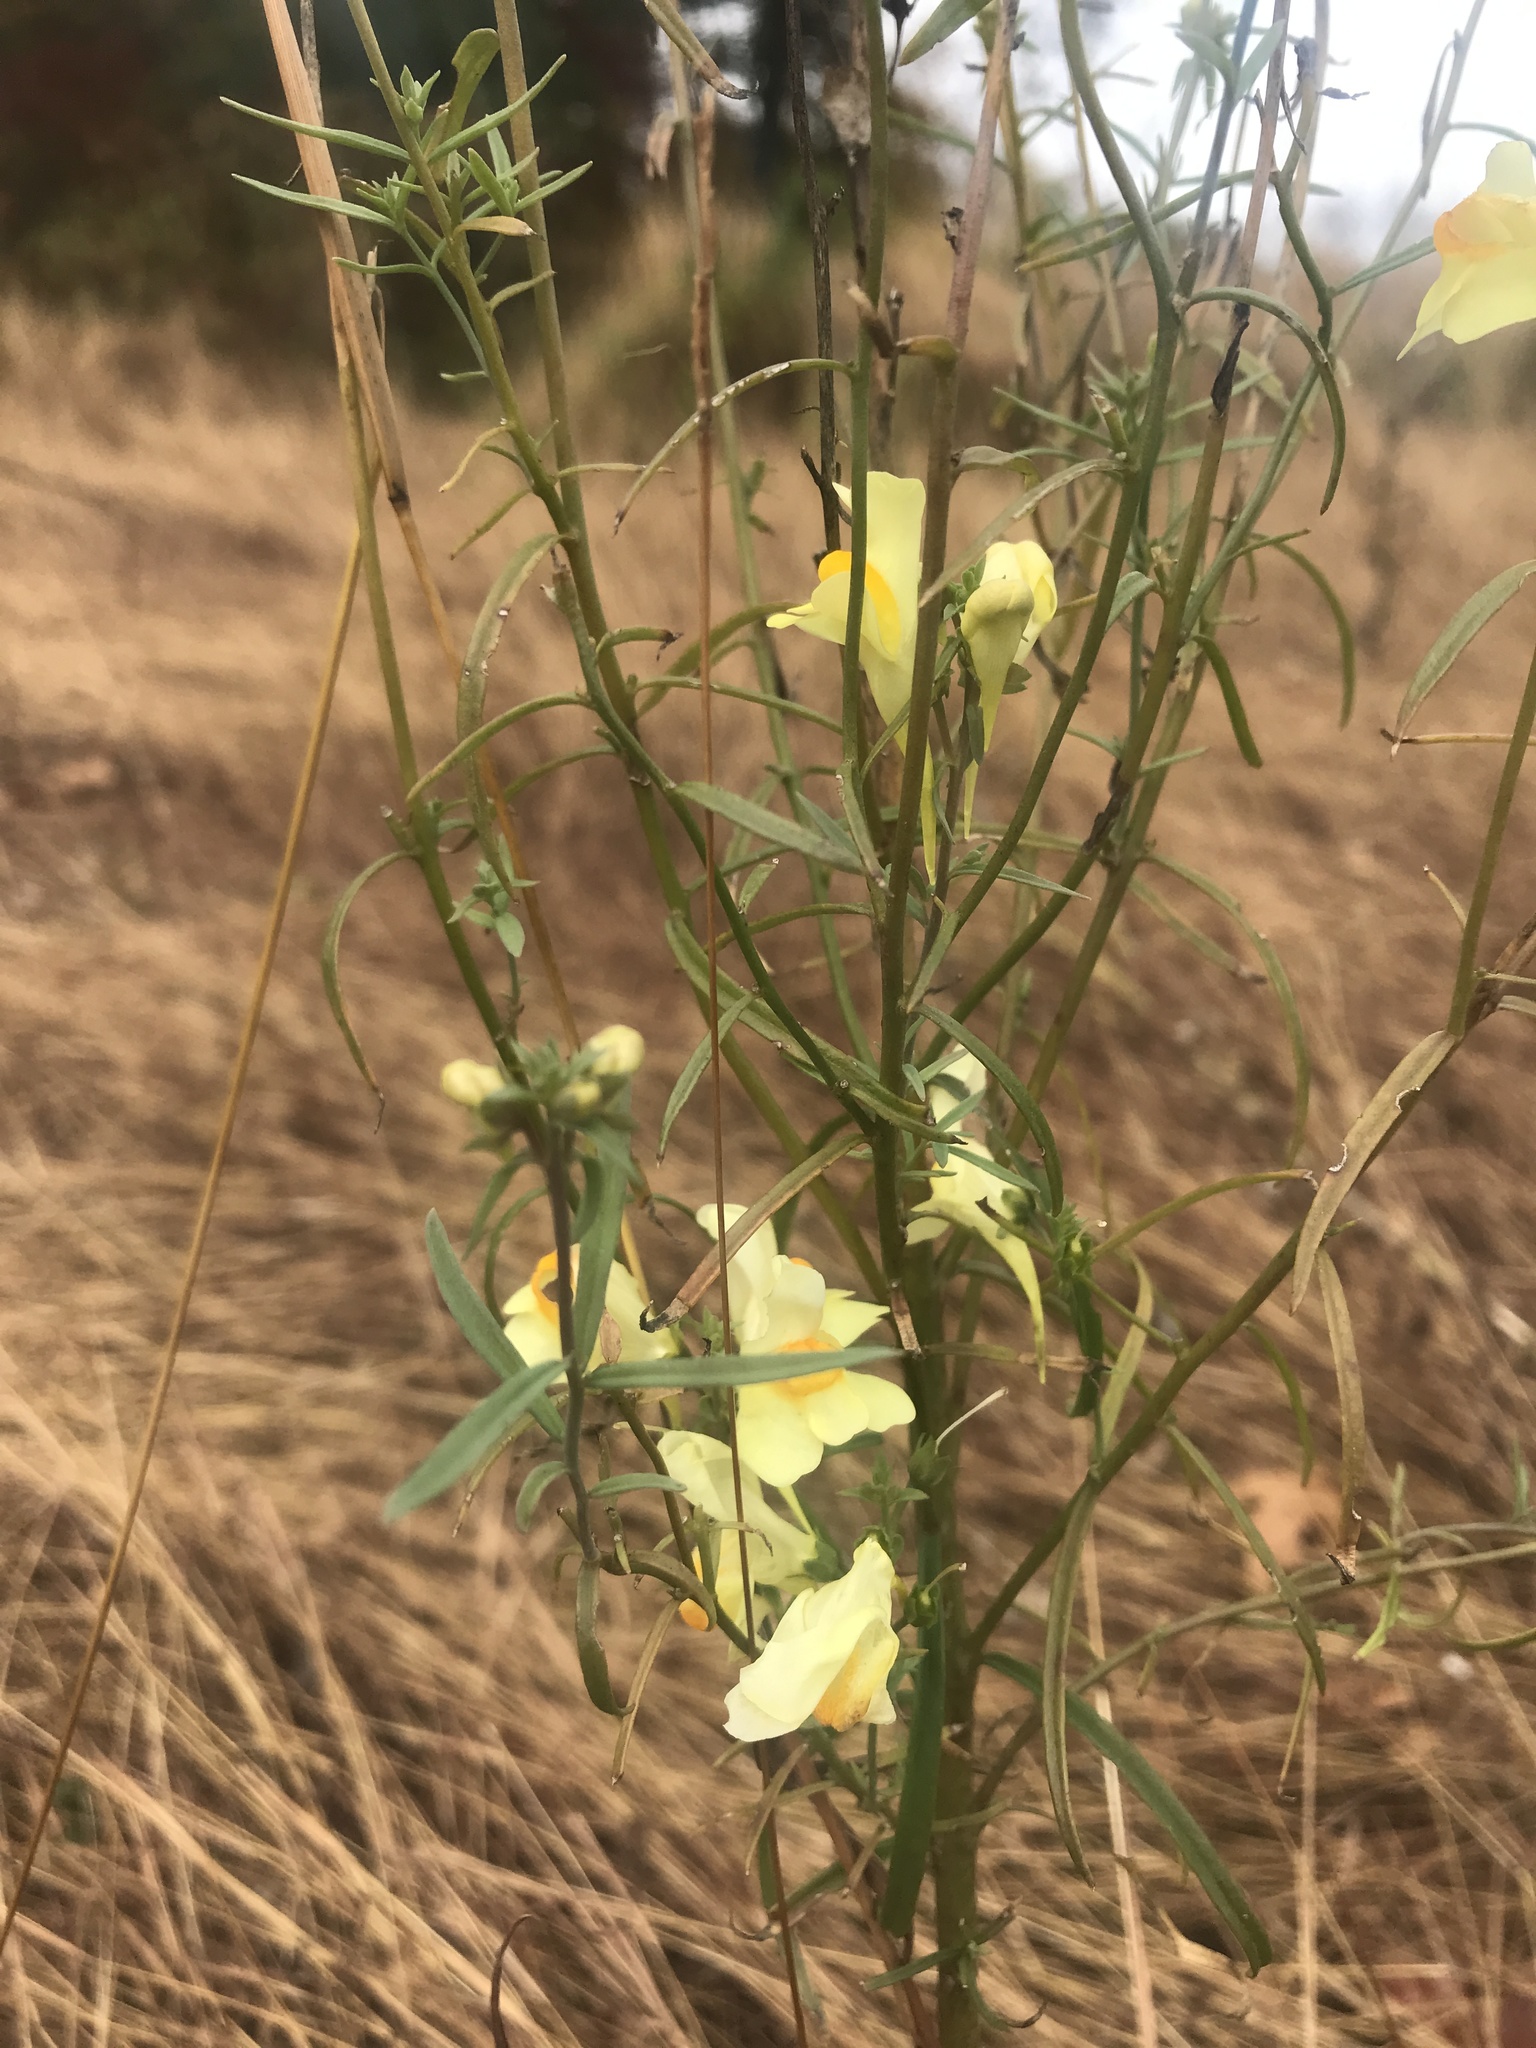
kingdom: Plantae
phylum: Tracheophyta
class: Magnoliopsida
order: Lamiales
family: Plantaginaceae
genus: Linaria
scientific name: Linaria vulgaris
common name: Butter and eggs
